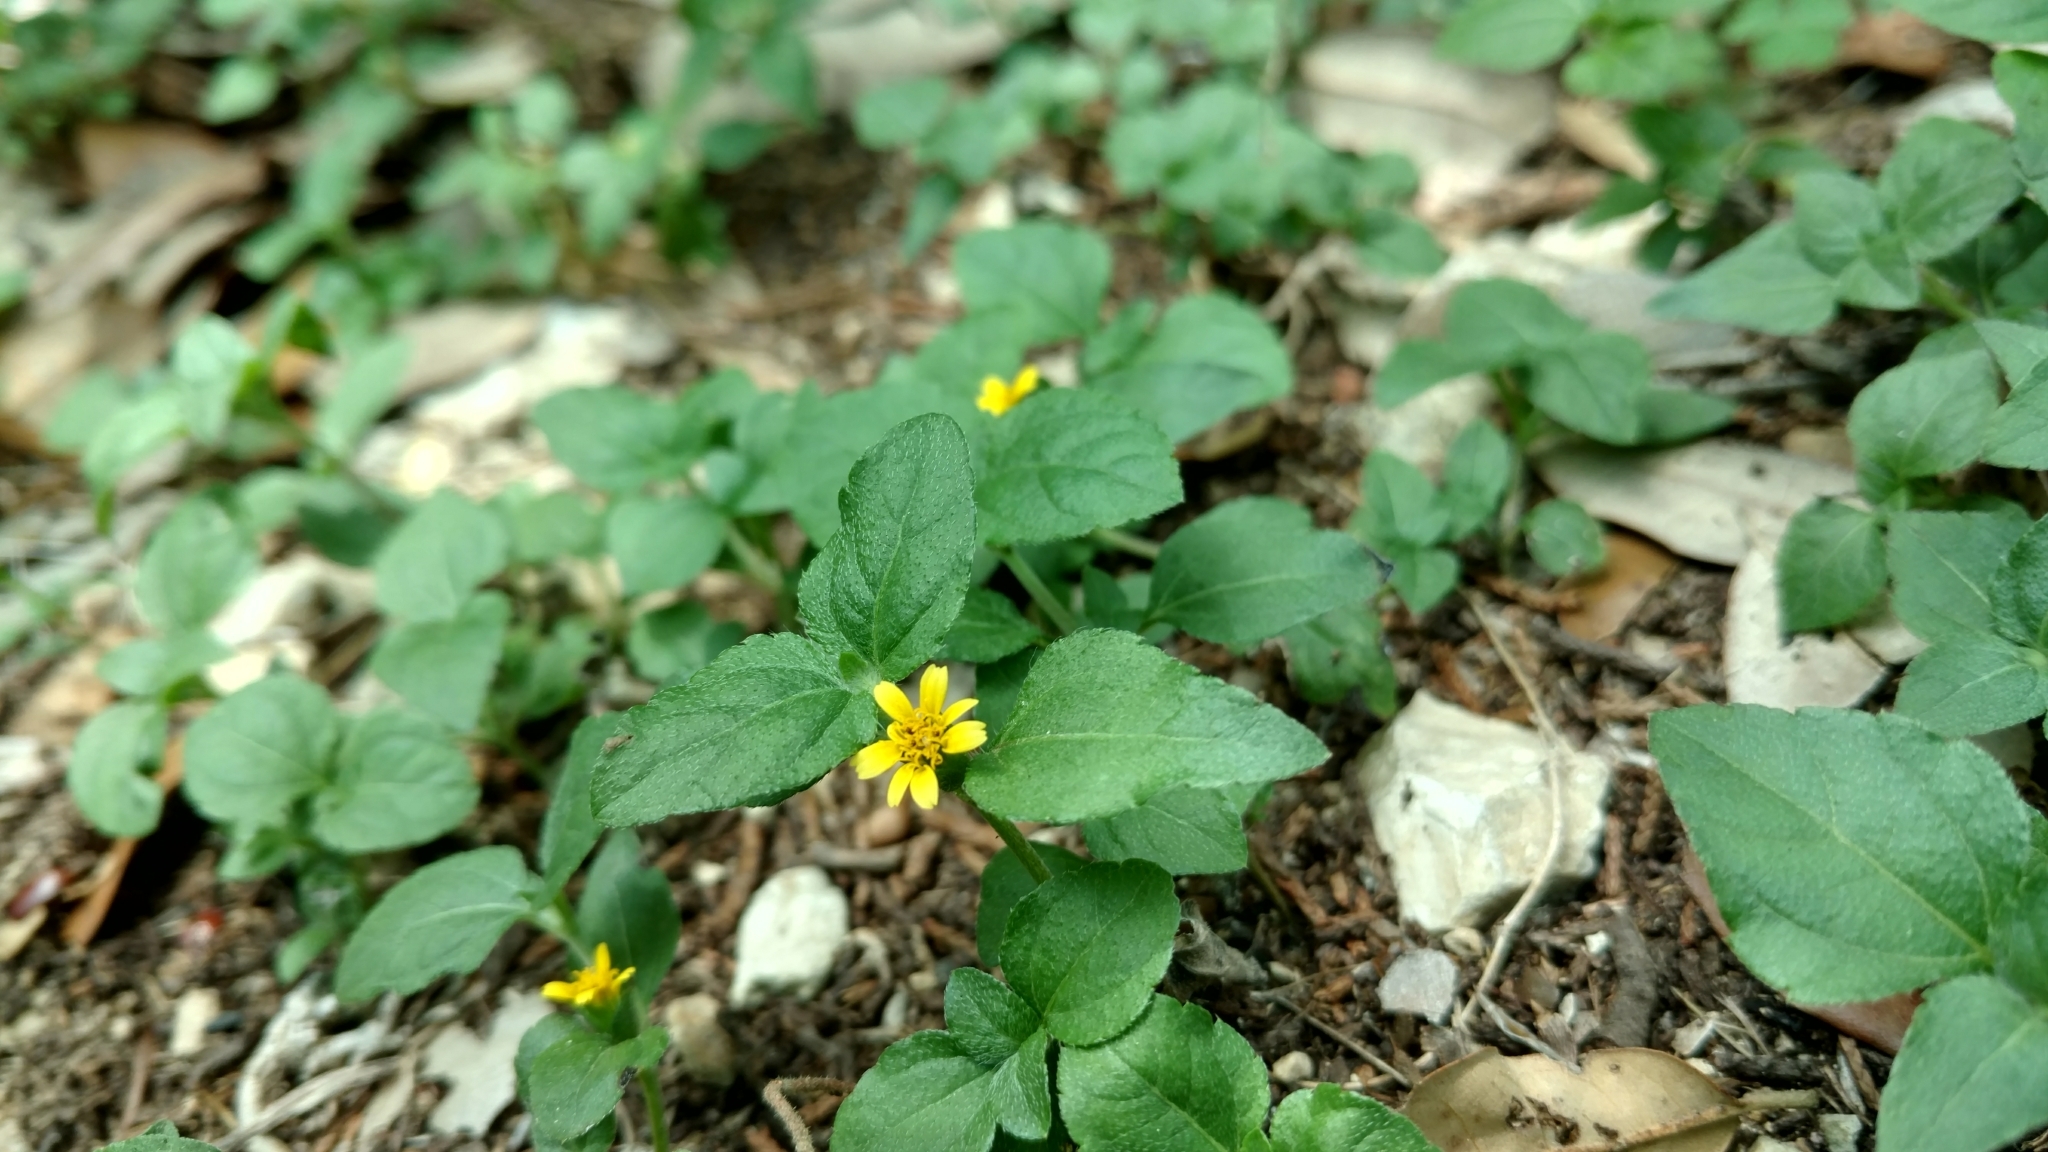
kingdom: Plantae
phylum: Tracheophyta
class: Magnoliopsida
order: Asterales
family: Asteraceae
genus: Calyptocarpus
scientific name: Calyptocarpus vialis
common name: Straggler daisy
